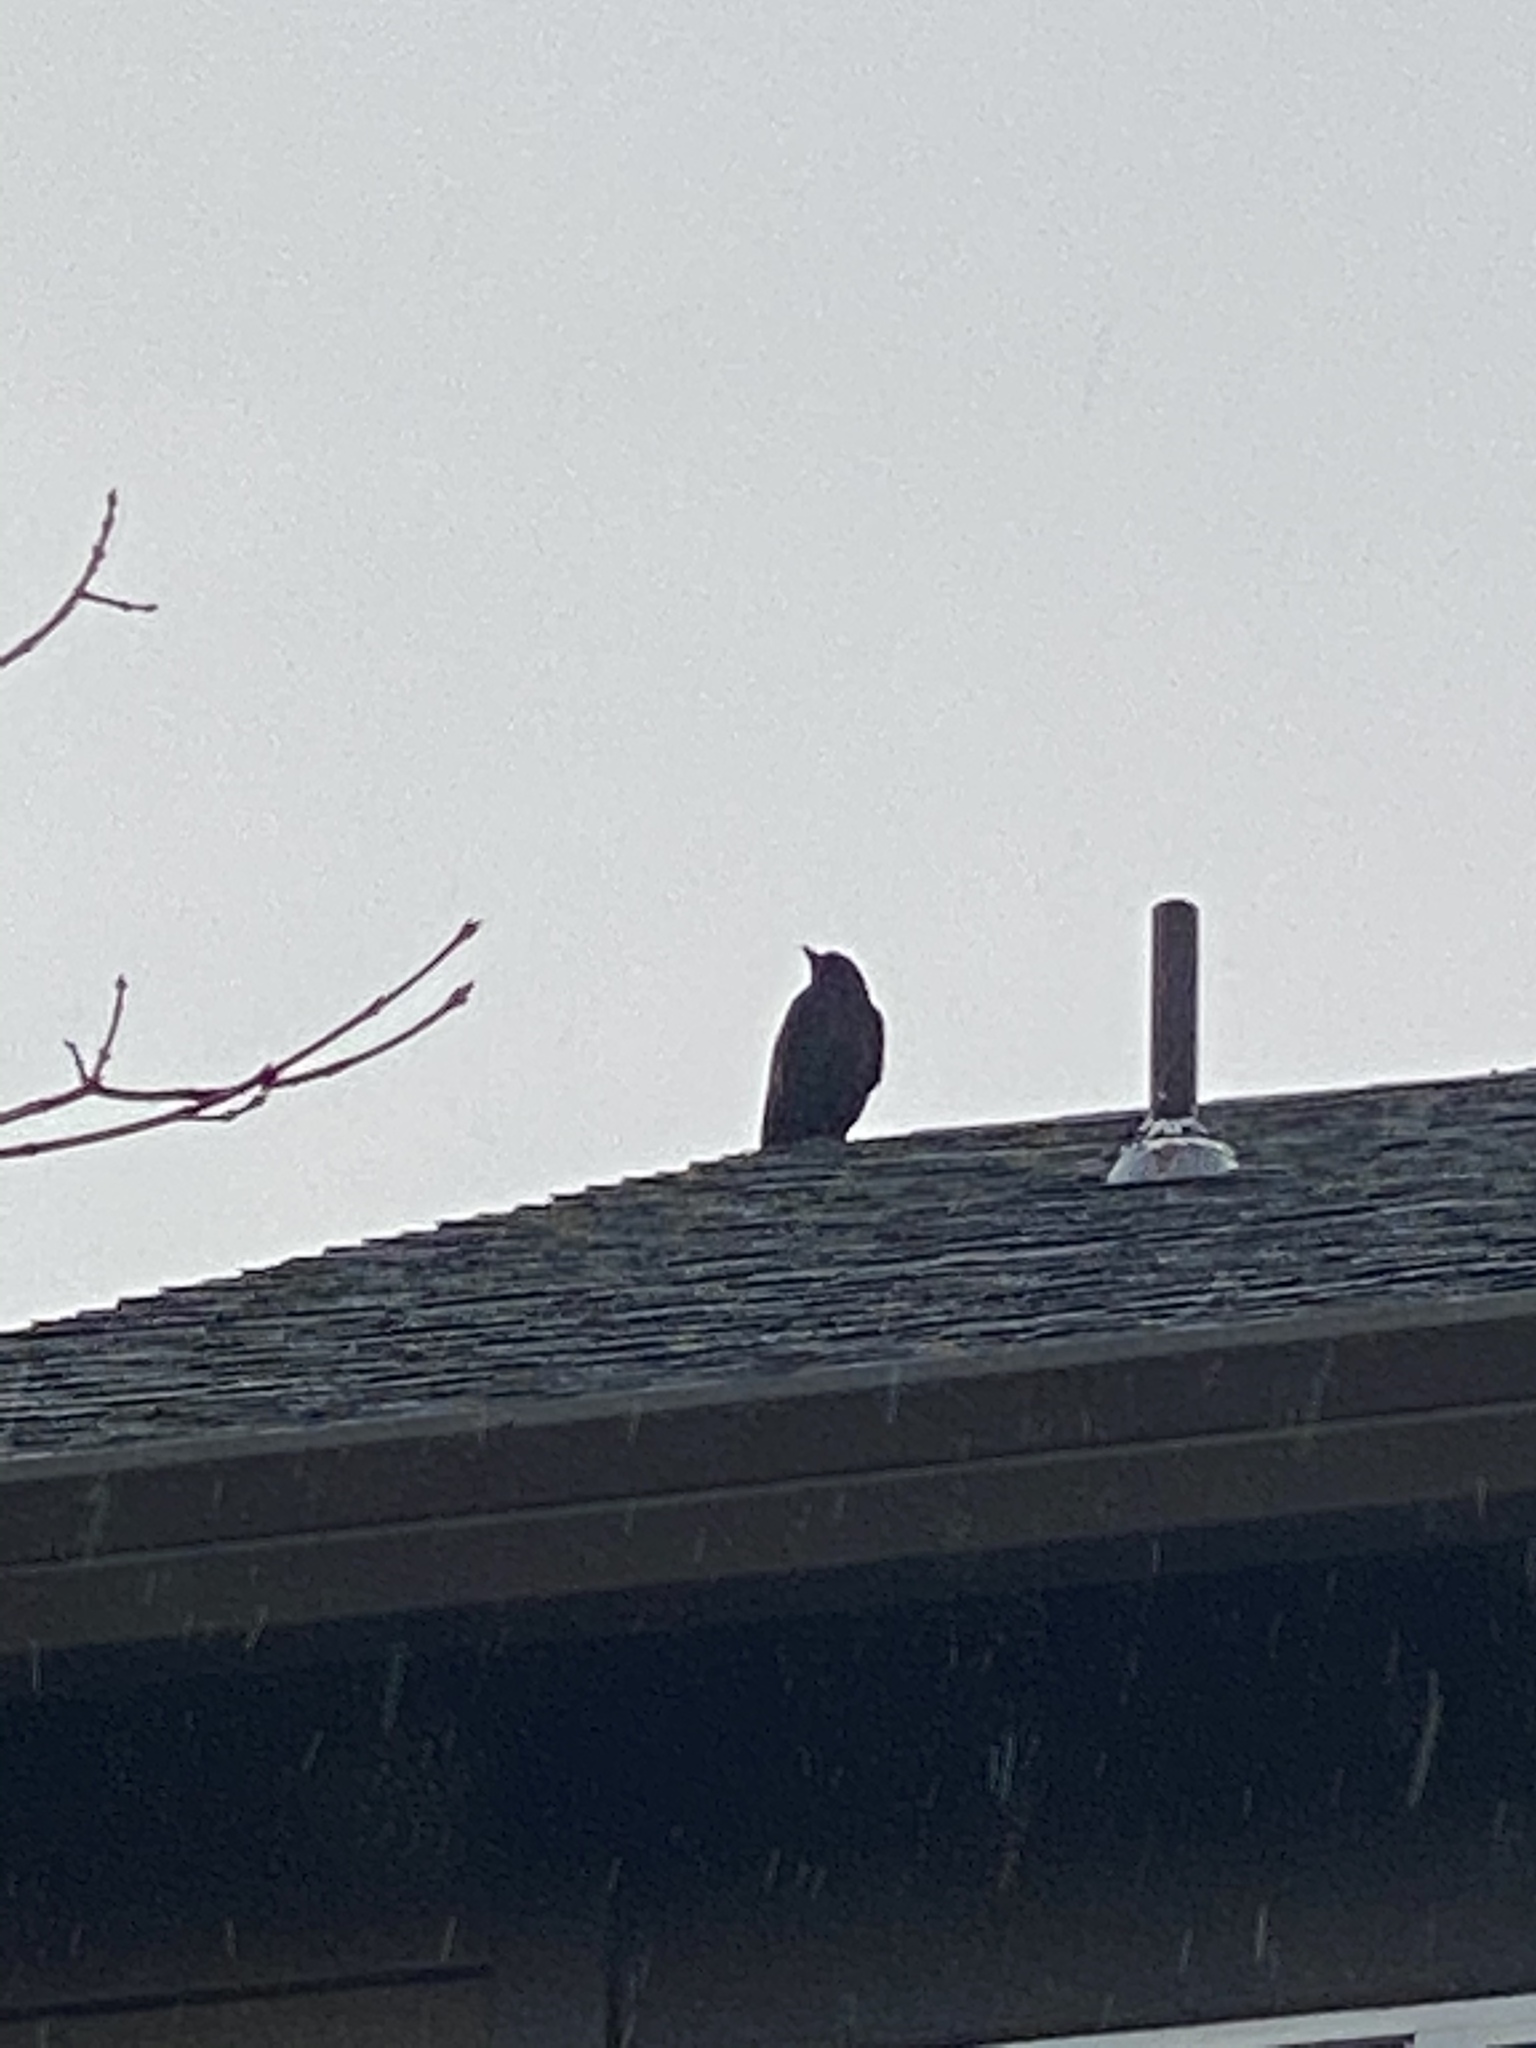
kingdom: Animalia
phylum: Chordata
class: Aves
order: Passeriformes
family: Corvidae
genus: Corvus
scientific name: Corvus brachyrhynchos
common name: American crow
